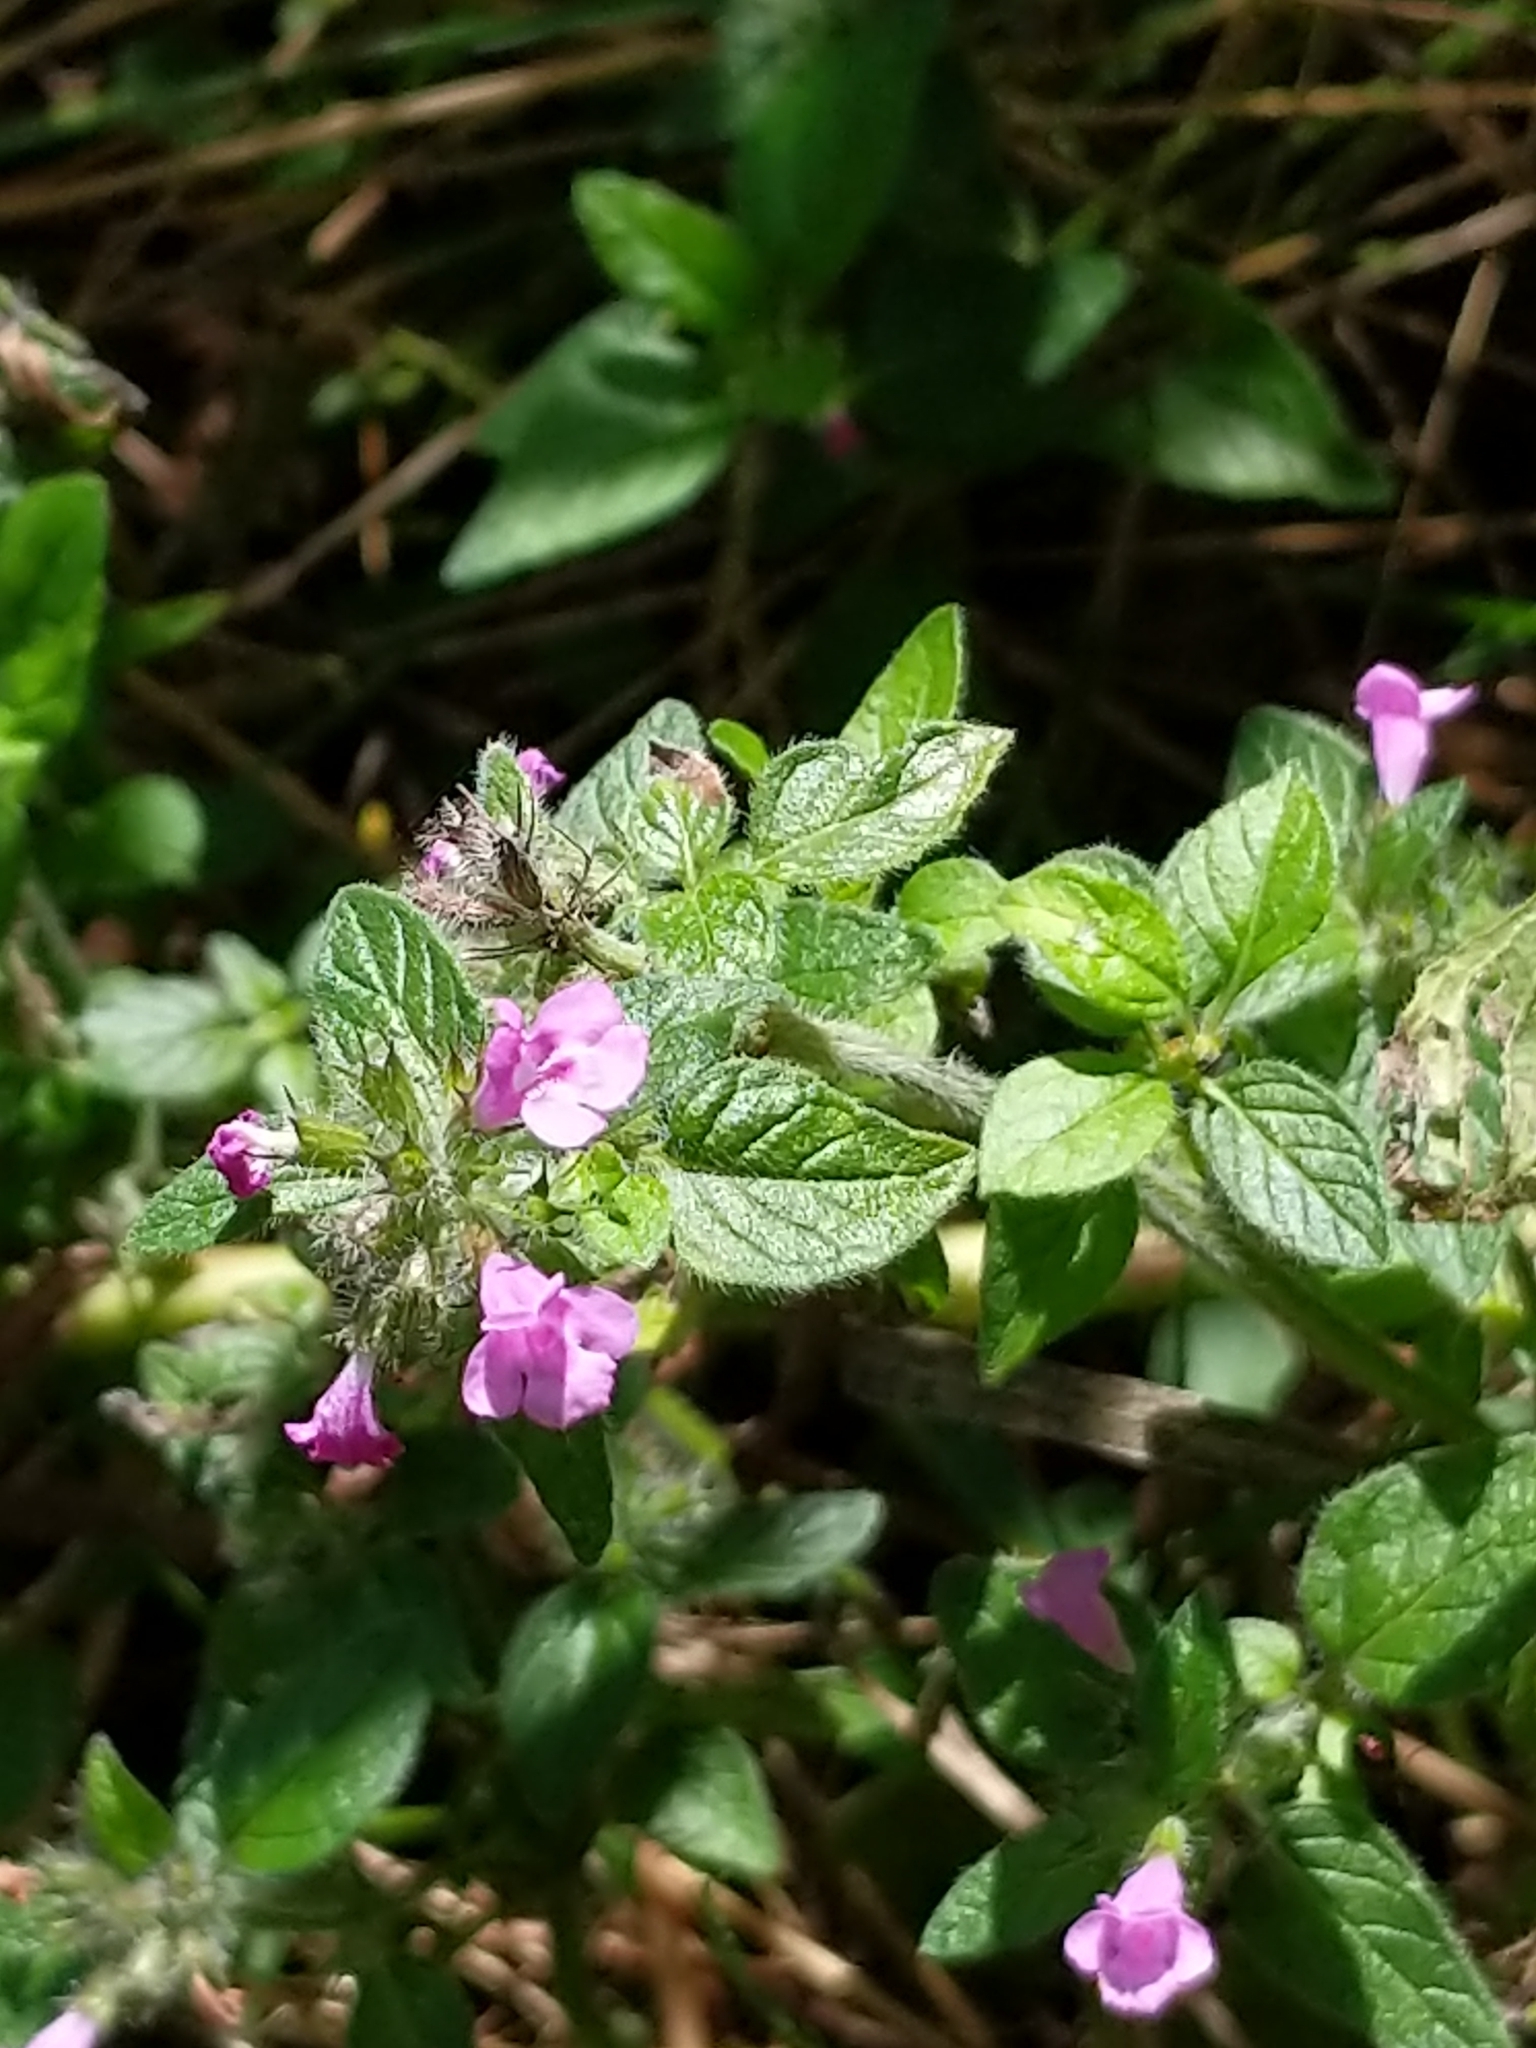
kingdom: Plantae
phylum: Tracheophyta
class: Magnoliopsida
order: Lamiales
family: Lamiaceae
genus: Clinopodium
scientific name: Clinopodium vulgare
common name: Wild basil
